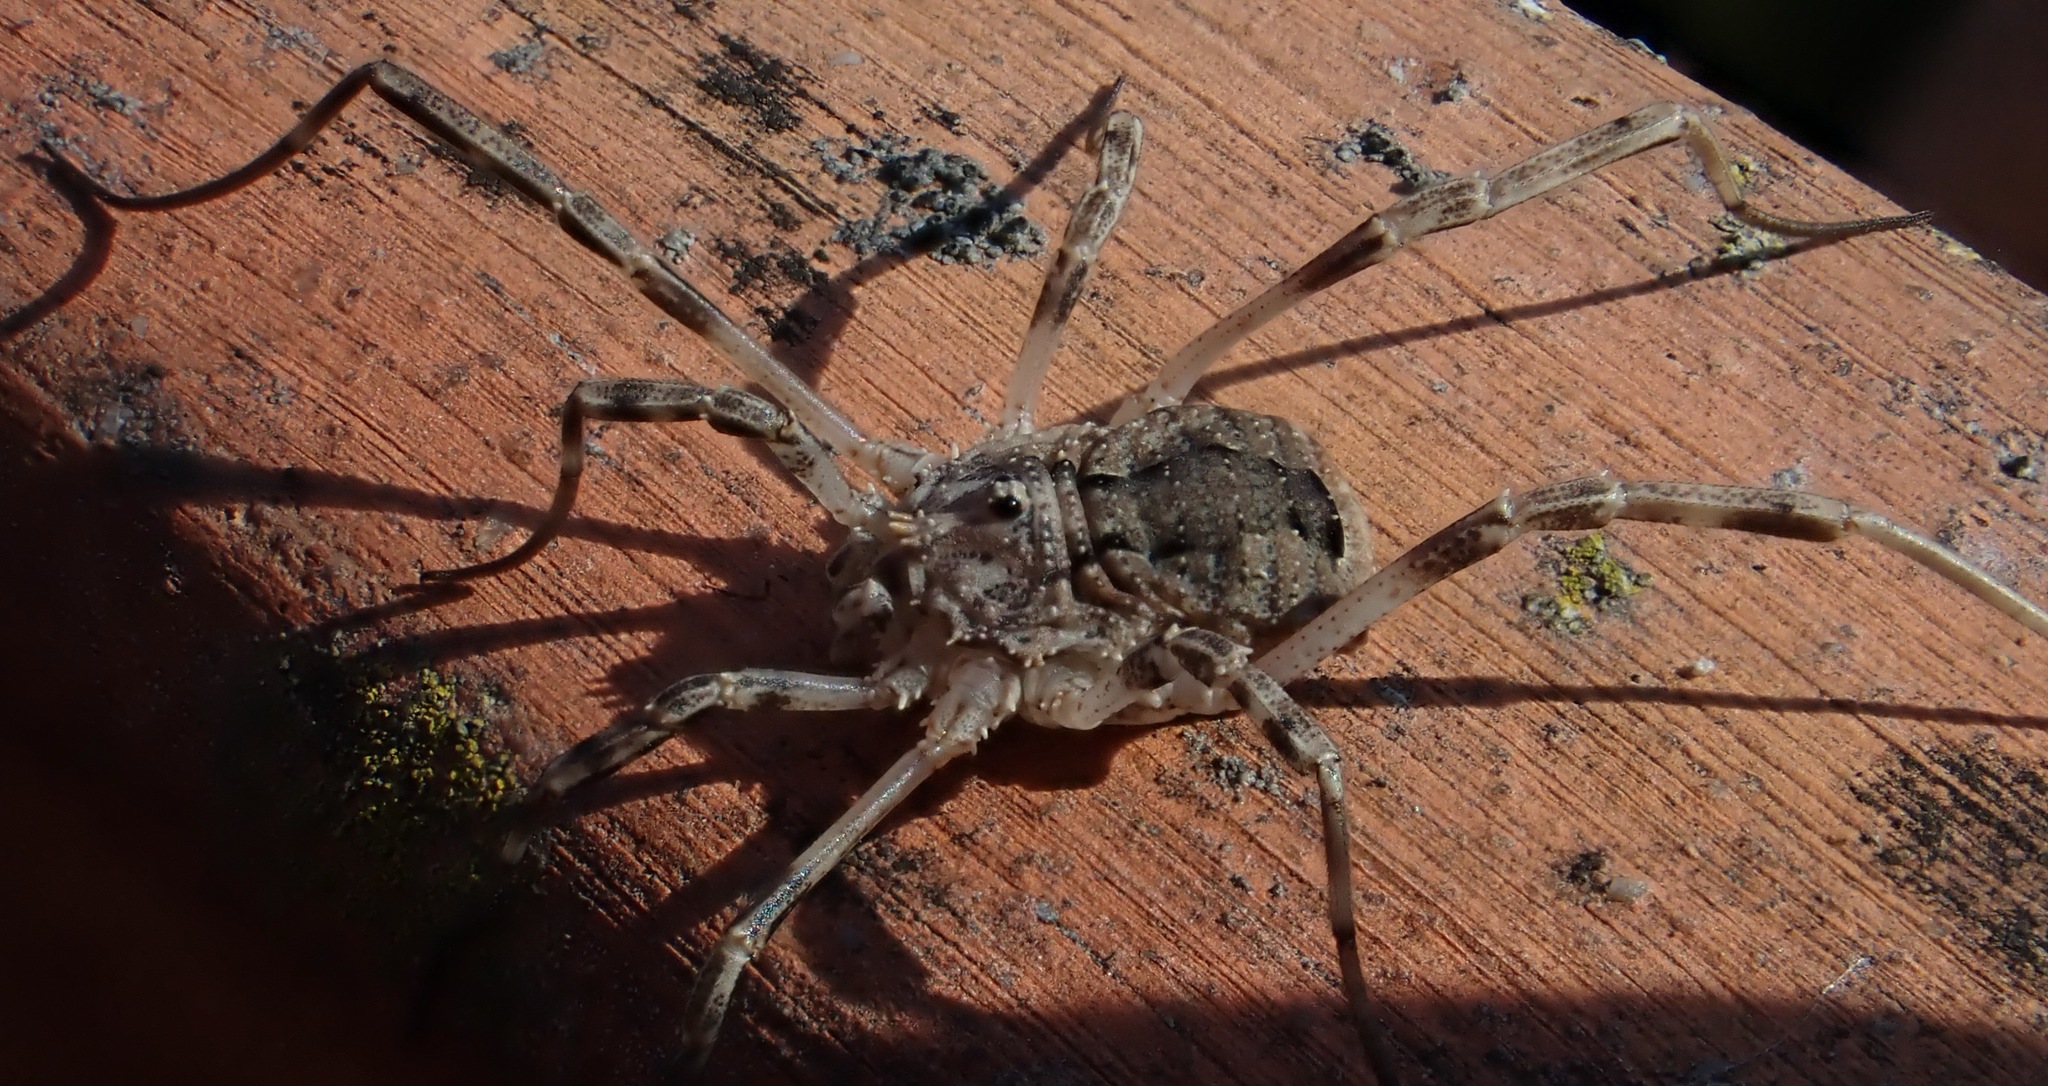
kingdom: Animalia
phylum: Arthropoda
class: Arachnida
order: Opiliones
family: Phalangiidae
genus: Odiellus
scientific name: Odiellus spinosus
